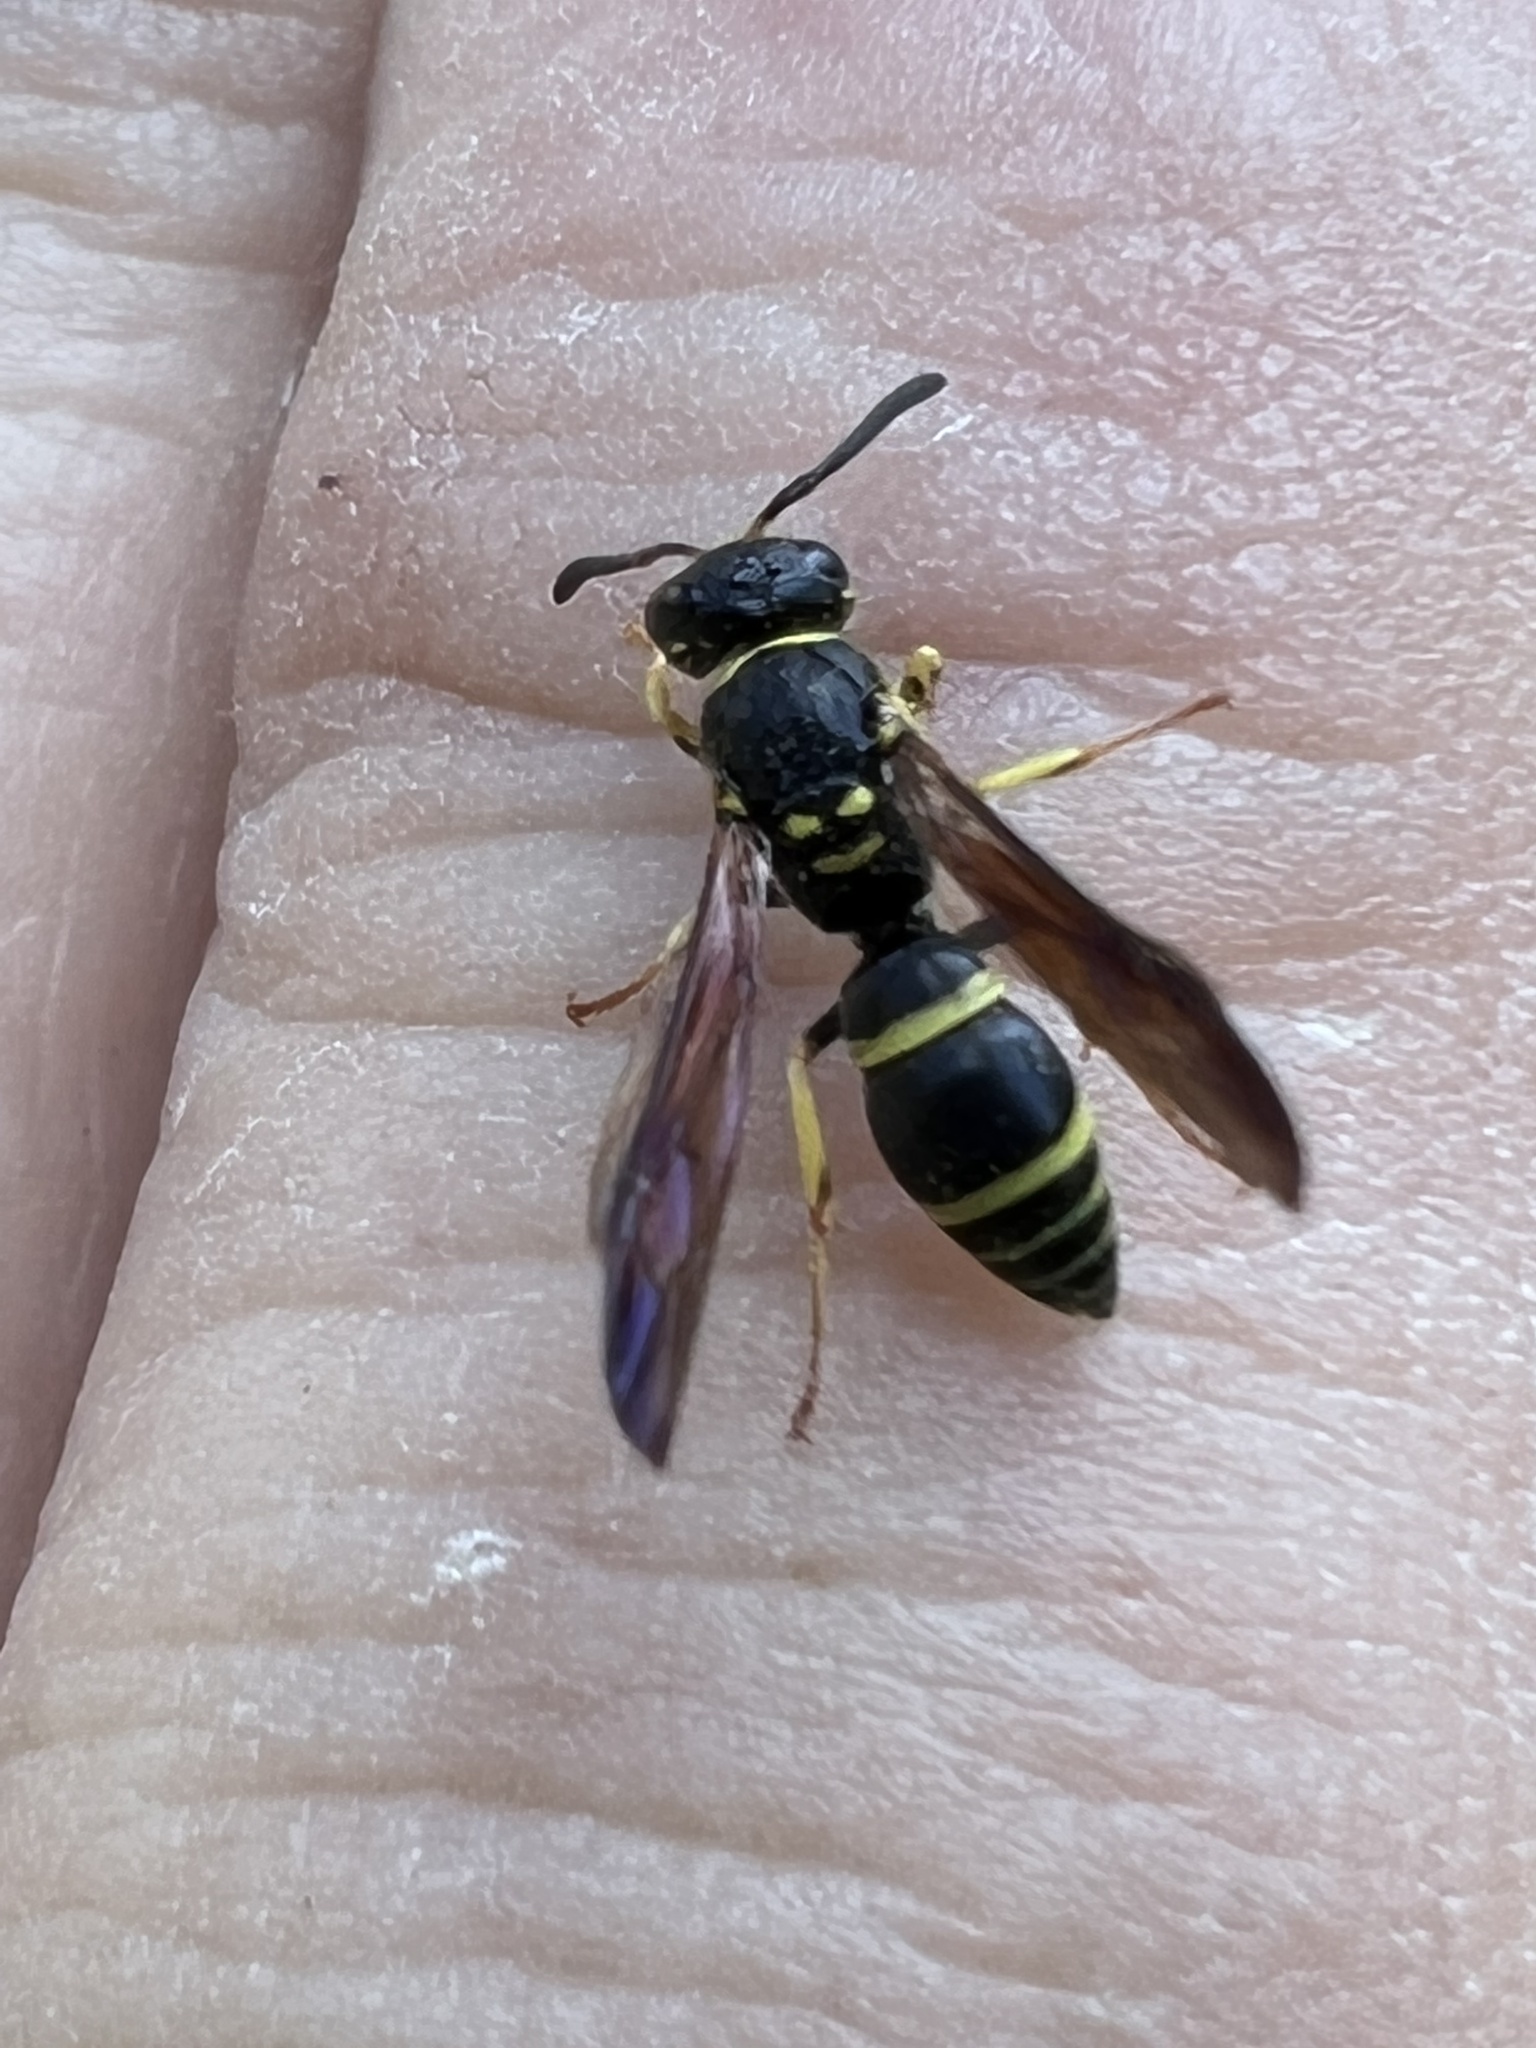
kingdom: Animalia
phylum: Arthropoda
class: Insecta
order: Hymenoptera
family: Vespidae
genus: Ancistrocerus
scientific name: Ancistrocerus adiabatus
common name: Bramble mason wasp
